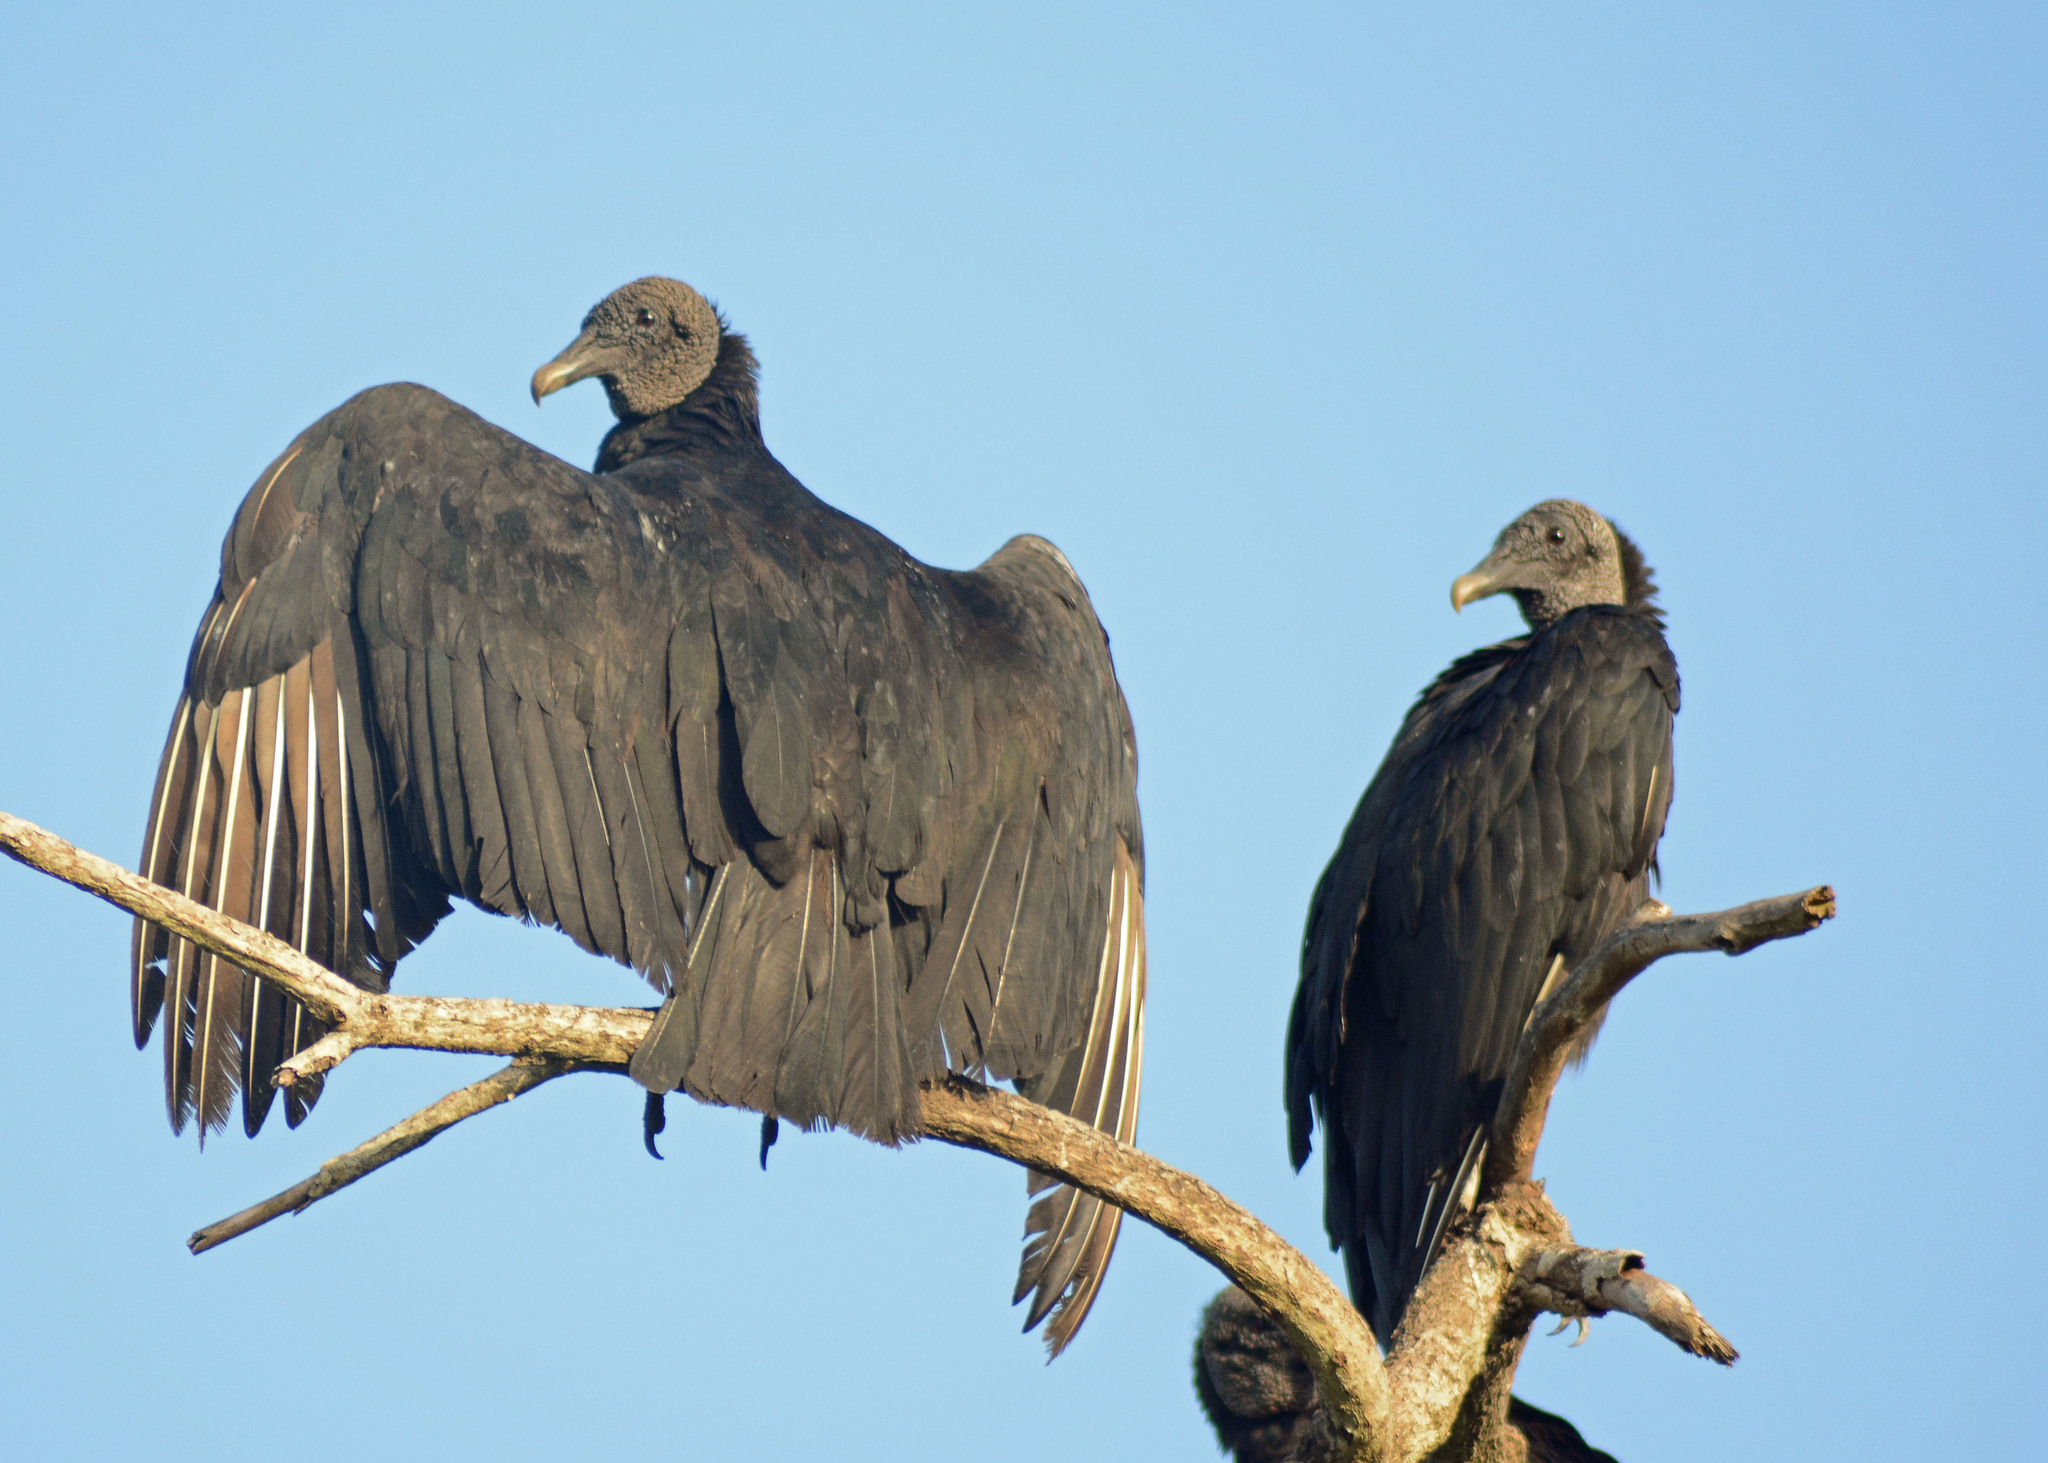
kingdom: Animalia
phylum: Chordata
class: Aves
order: Accipitriformes
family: Cathartidae
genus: Coragyps
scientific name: Coragyps atratus
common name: Black vulture
